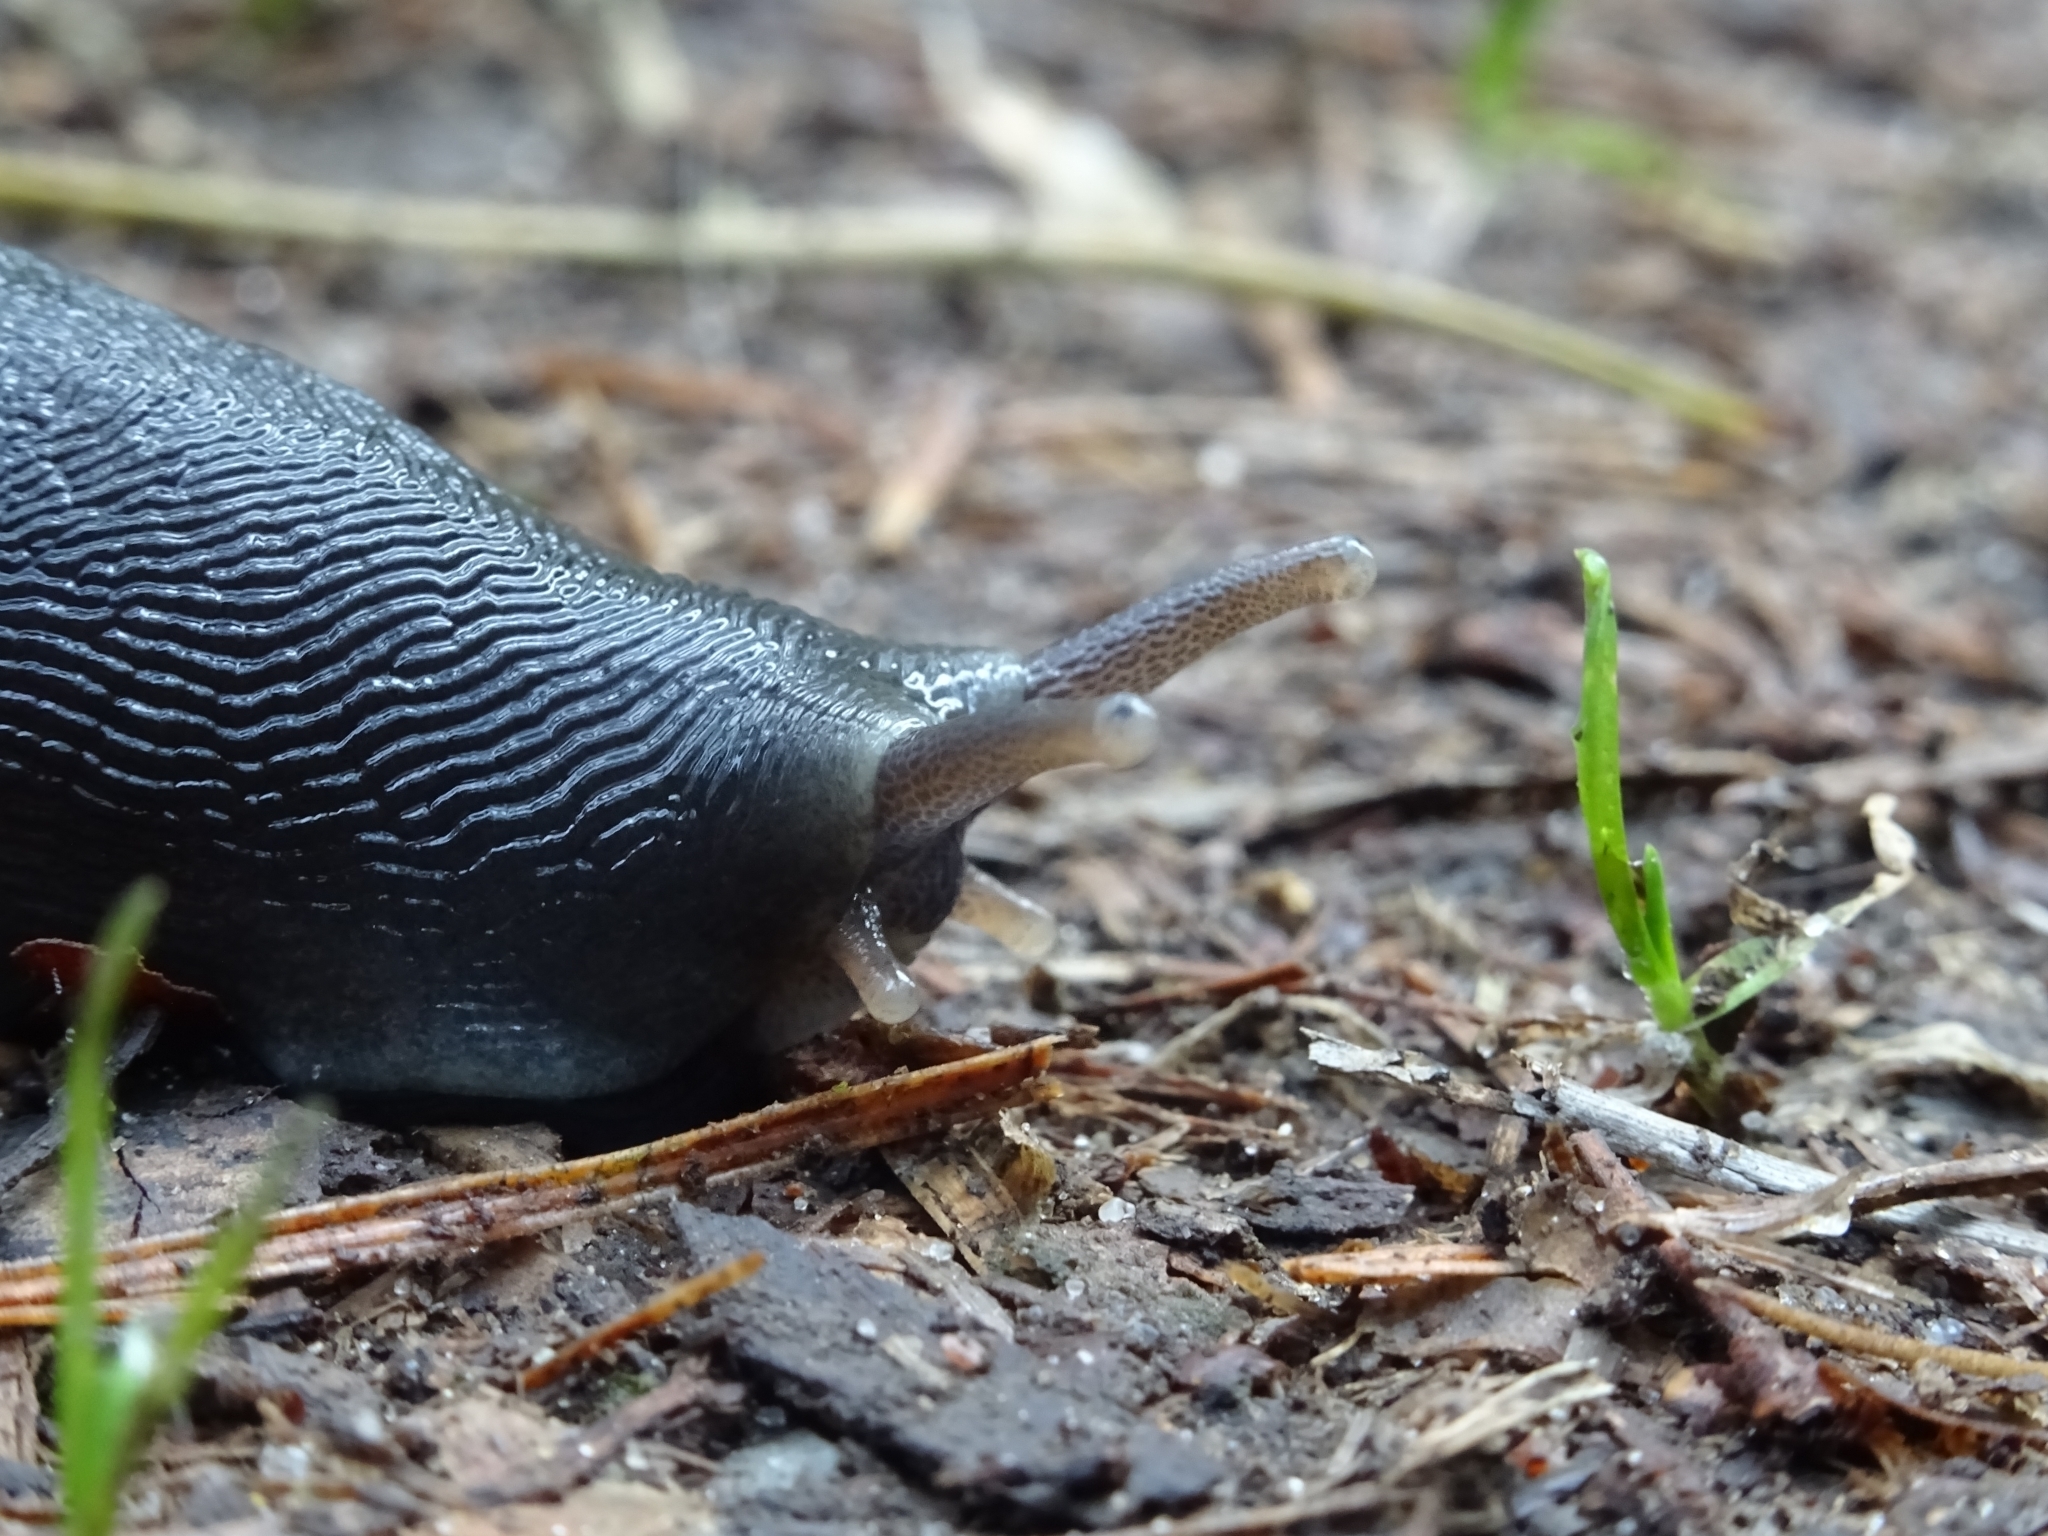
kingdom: Animalia
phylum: Mollusca
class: Gastropoda
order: Stylommatophora
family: Limacidae
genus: Limax
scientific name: Limax cinereoniger
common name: Ash-black slug
